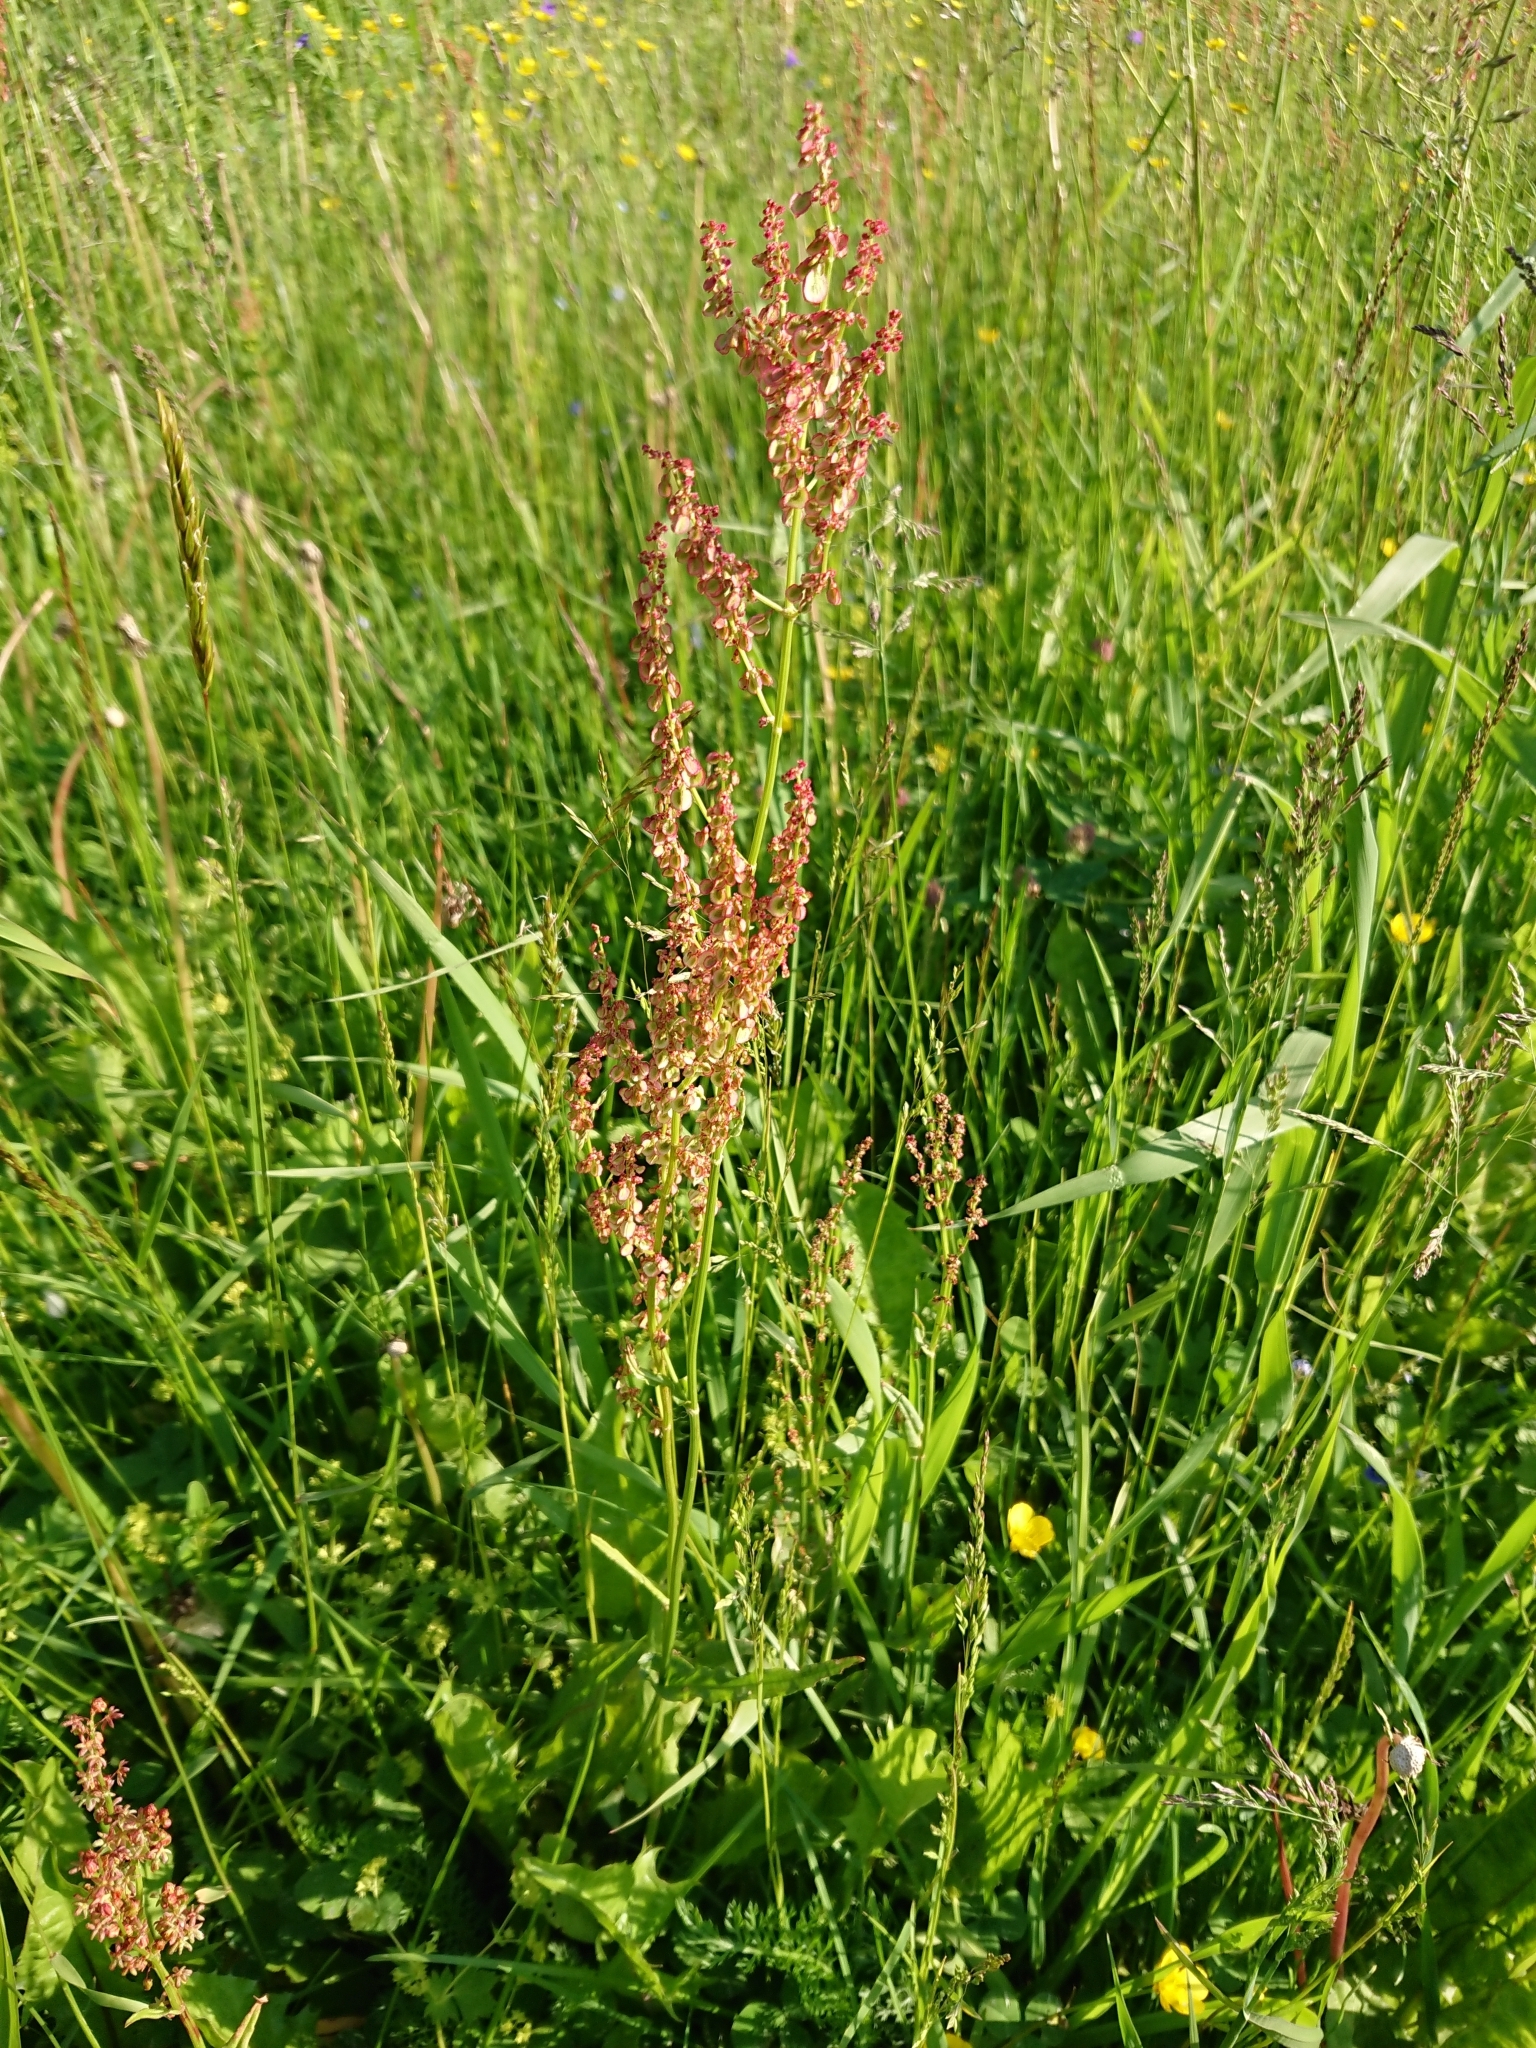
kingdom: Plantae
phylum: Tracheophyta
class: Magnoliopsida
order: Caryophyllales
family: Polygonaceae
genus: Rumex
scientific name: Rumex acetosa
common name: Garden sorrel
